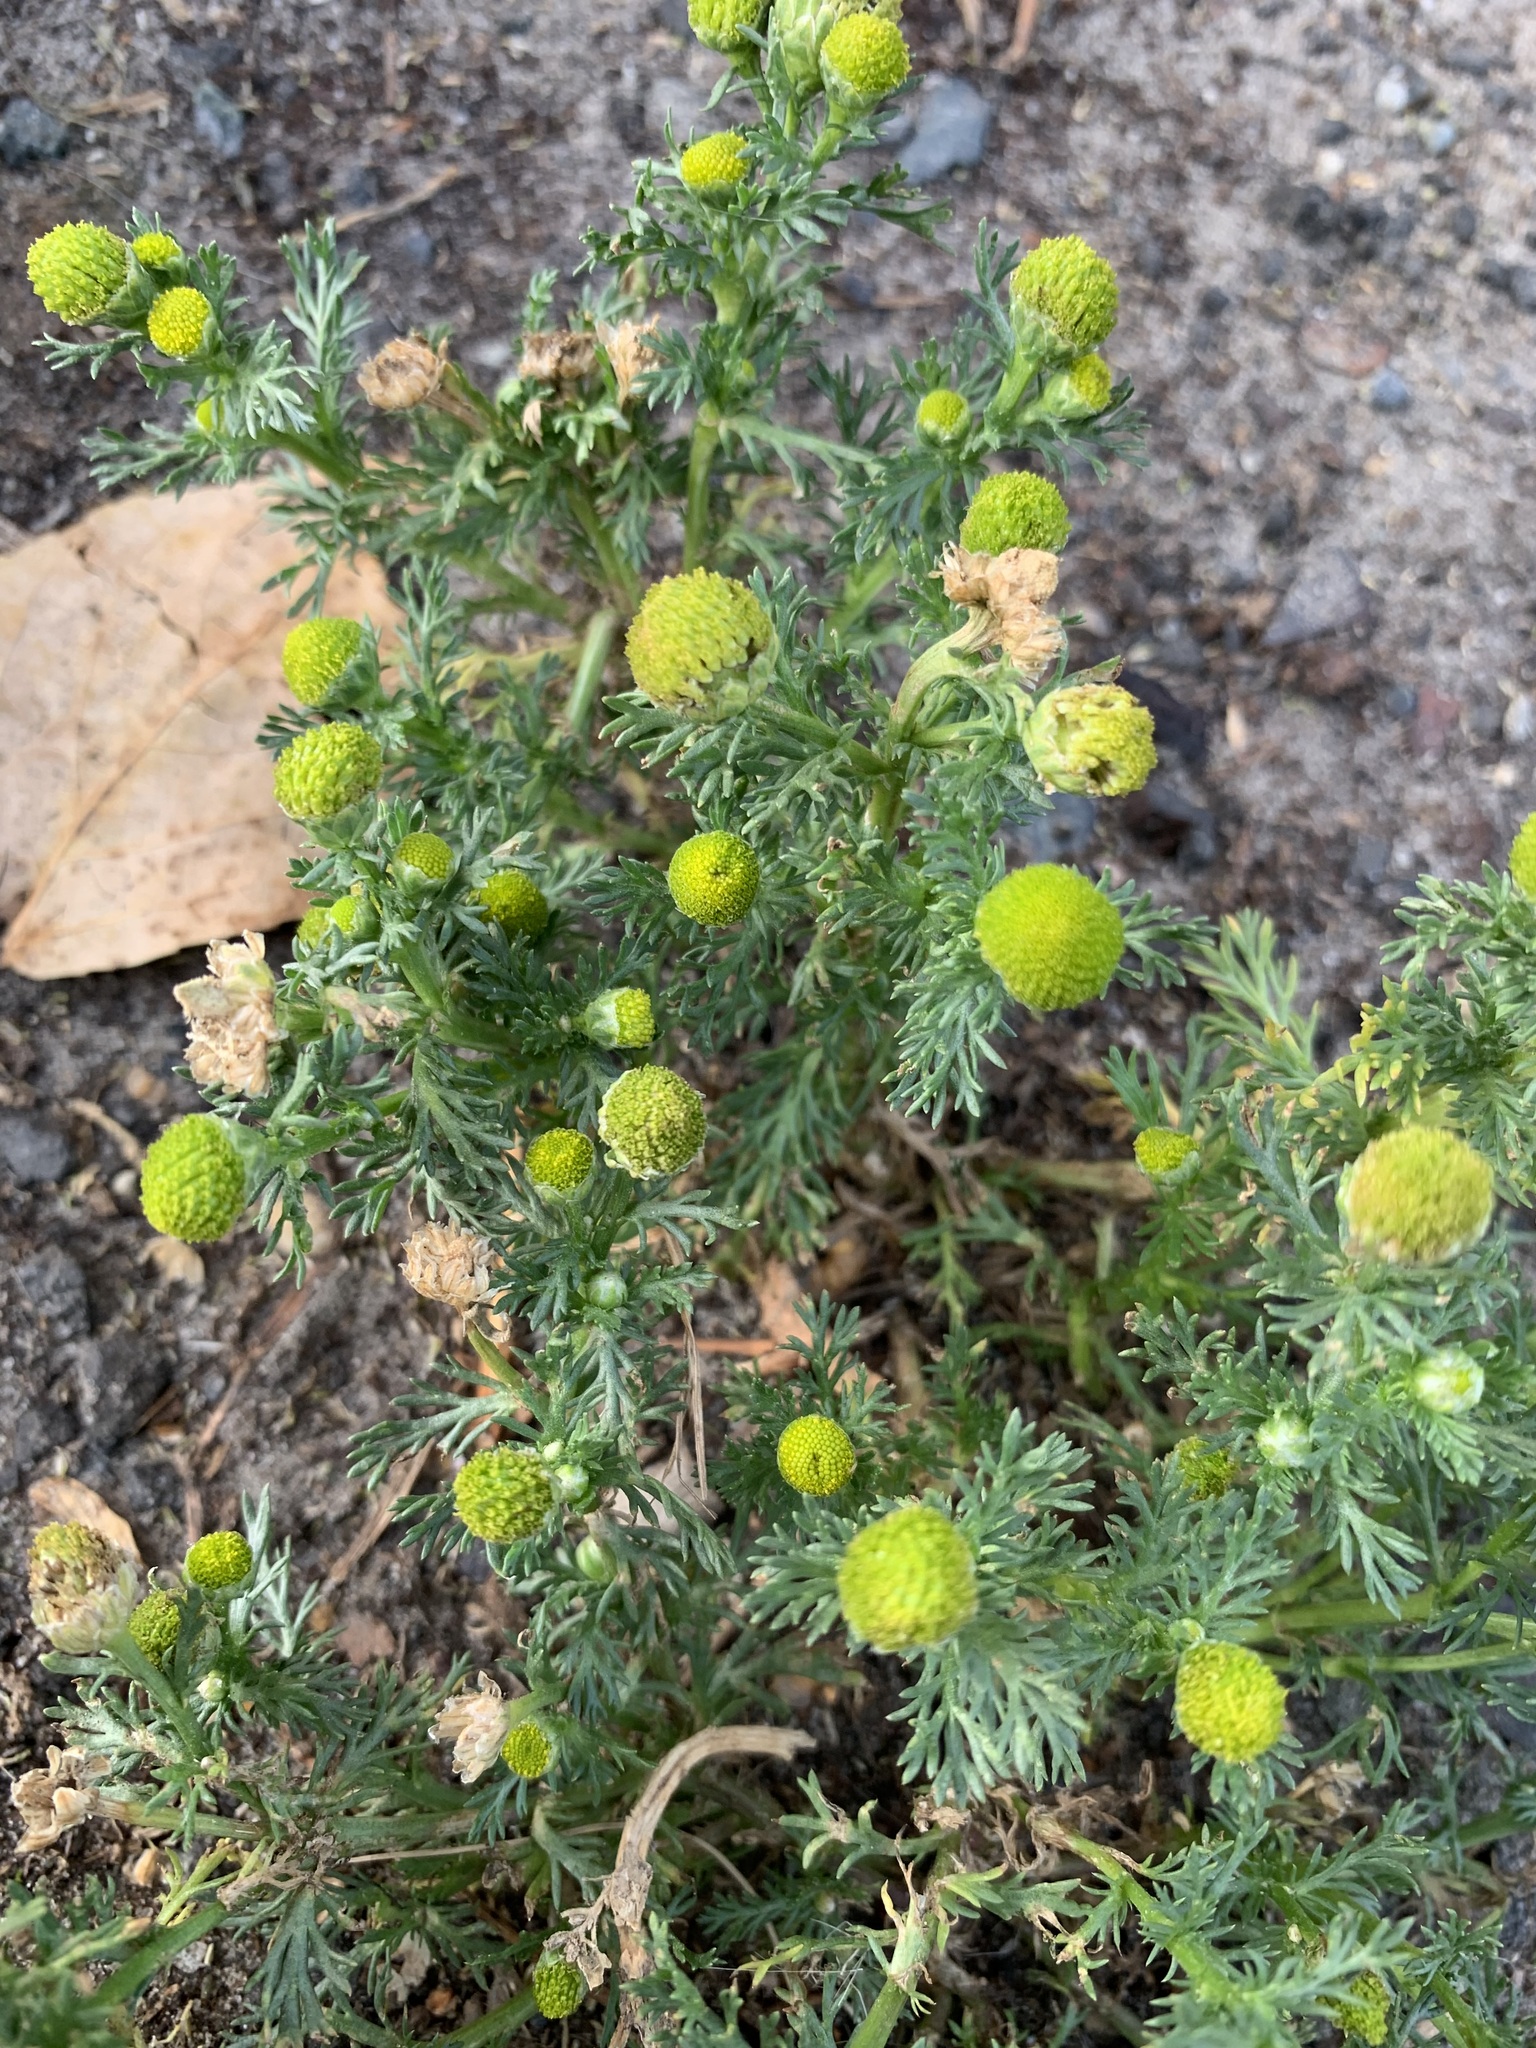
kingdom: Plantae
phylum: Tracheophyta
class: Magnoliopsida
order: Asterales
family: Asteraceae
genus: Matricaria
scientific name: Matricaria discoidea
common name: Disc mayweed
